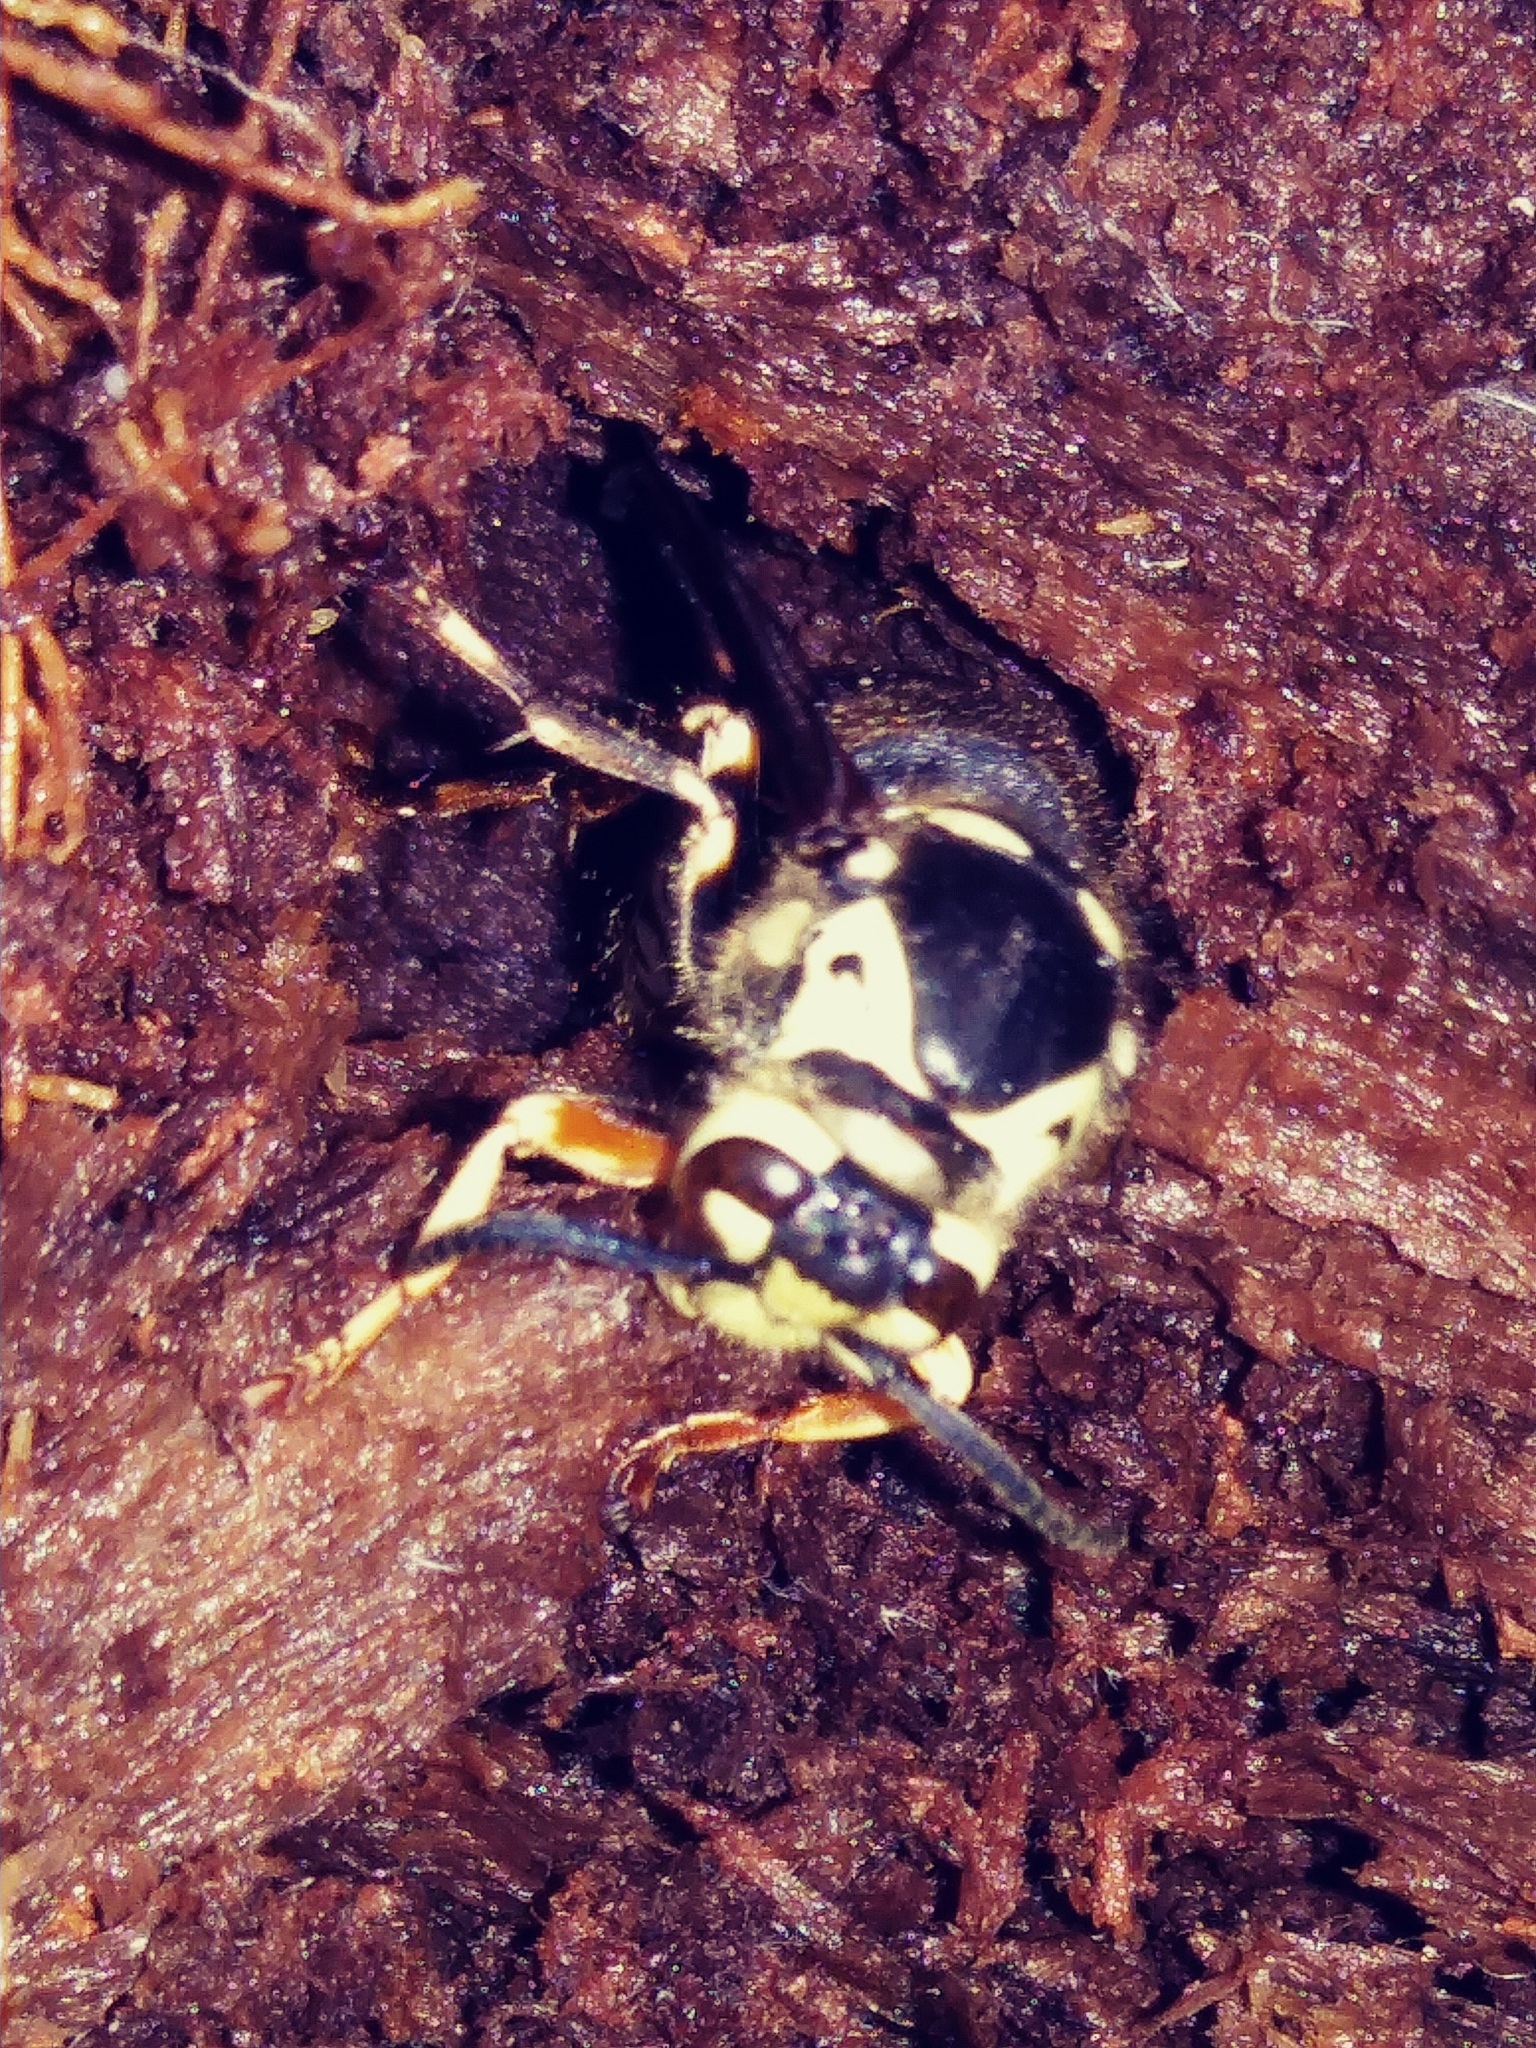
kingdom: Animalia
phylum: Arthropoda
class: Insecta
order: Hymenoptera
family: Vespidae
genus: Dolichovespula
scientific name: Dolichovespula maculata
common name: Bald-faced hornet
